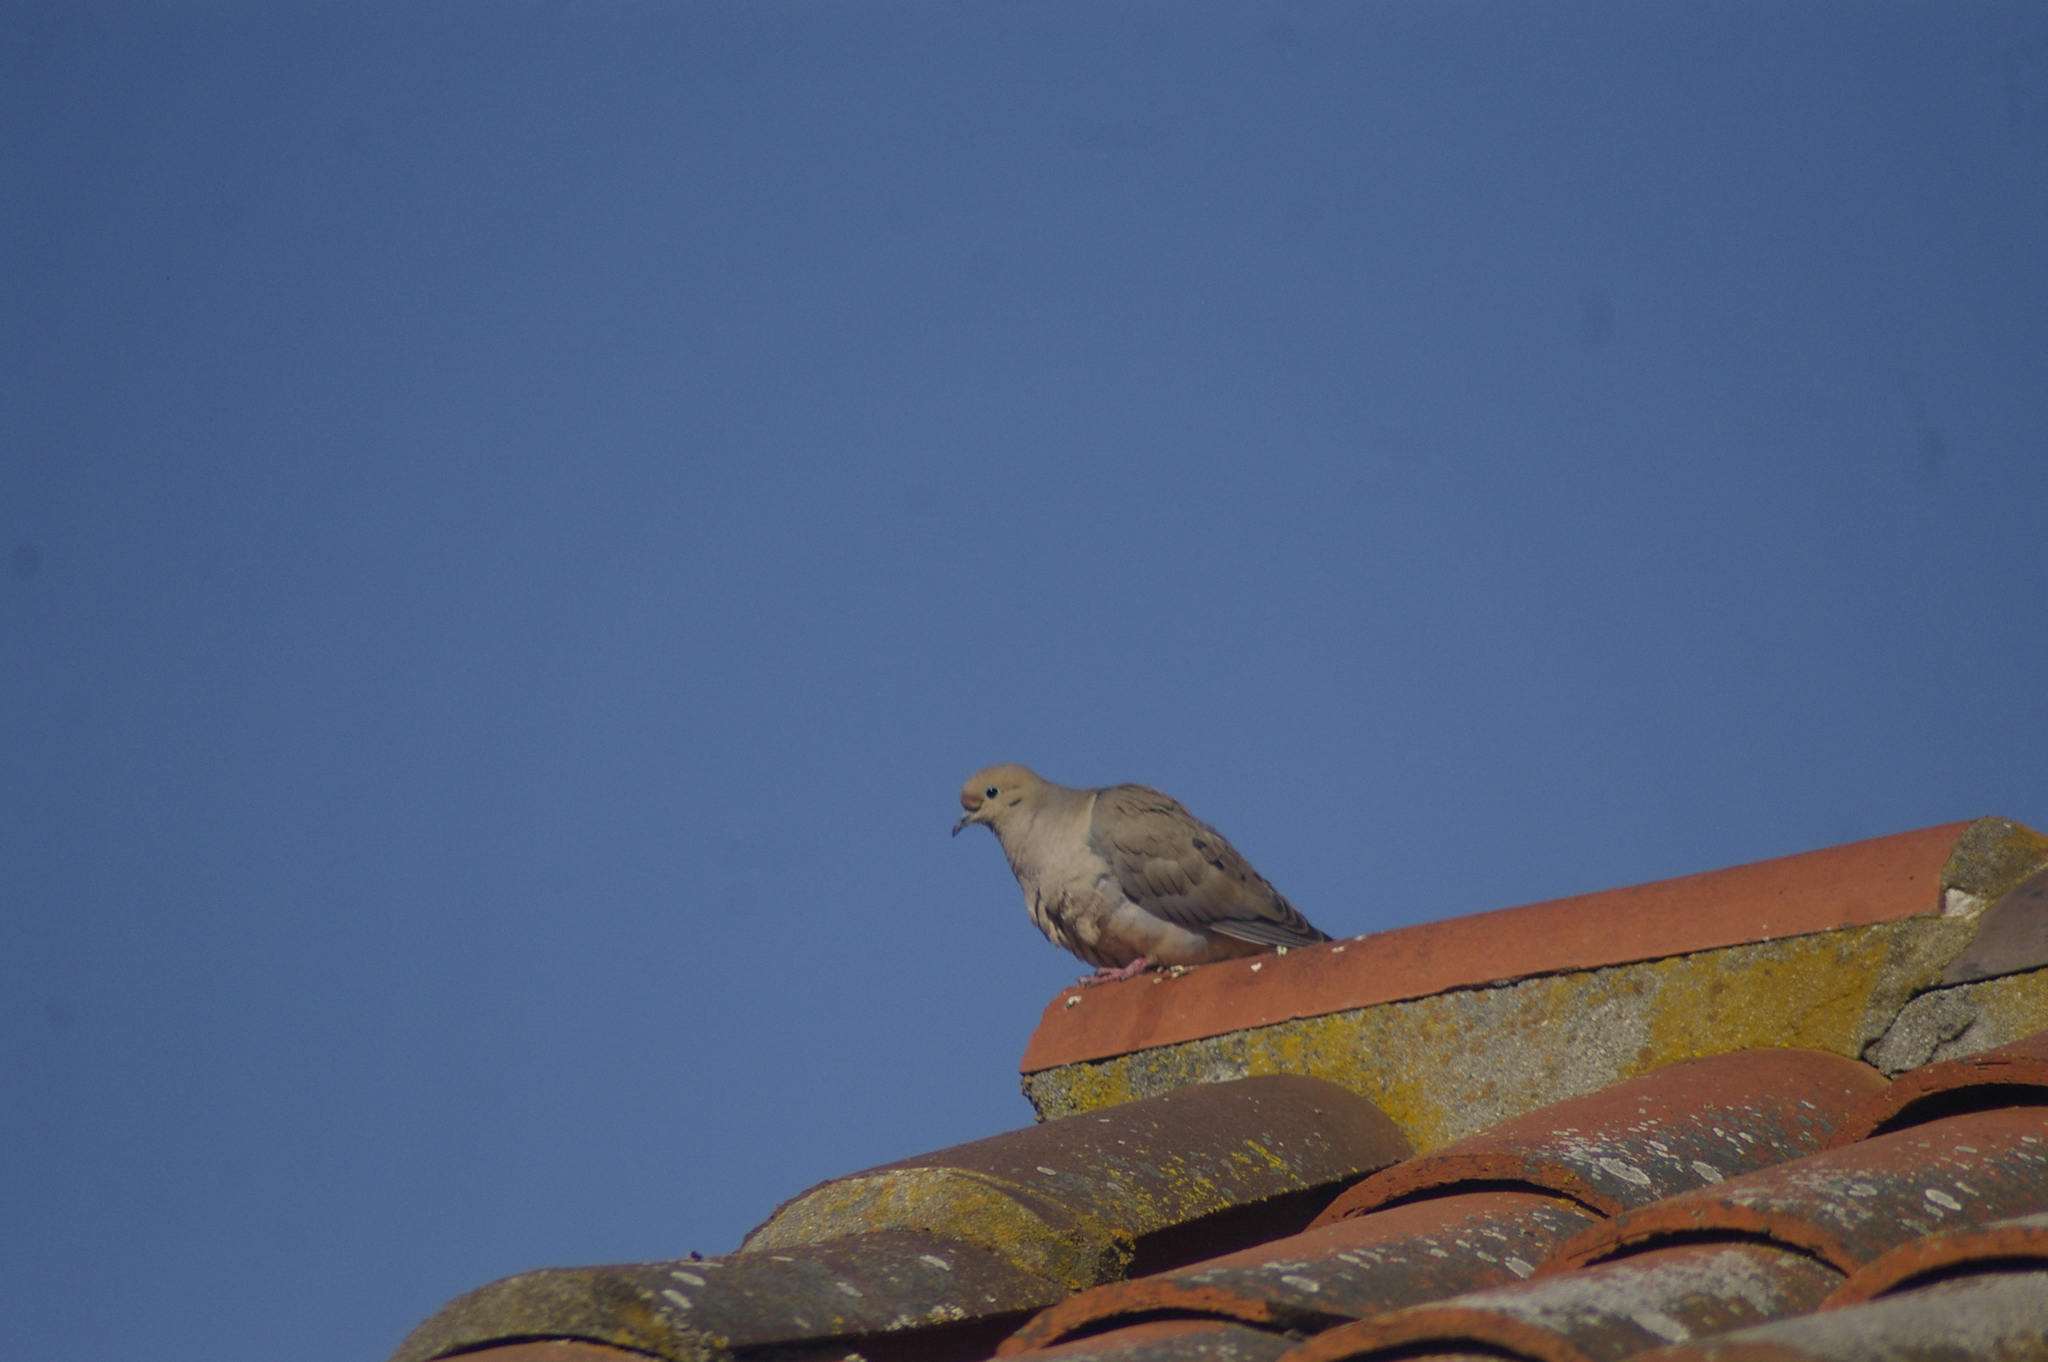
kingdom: Animalia
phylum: Chordata
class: Aves
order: Columbiformes
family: Columbidae
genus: Zenaida
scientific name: Zenaida macroura
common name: Mourning dove
